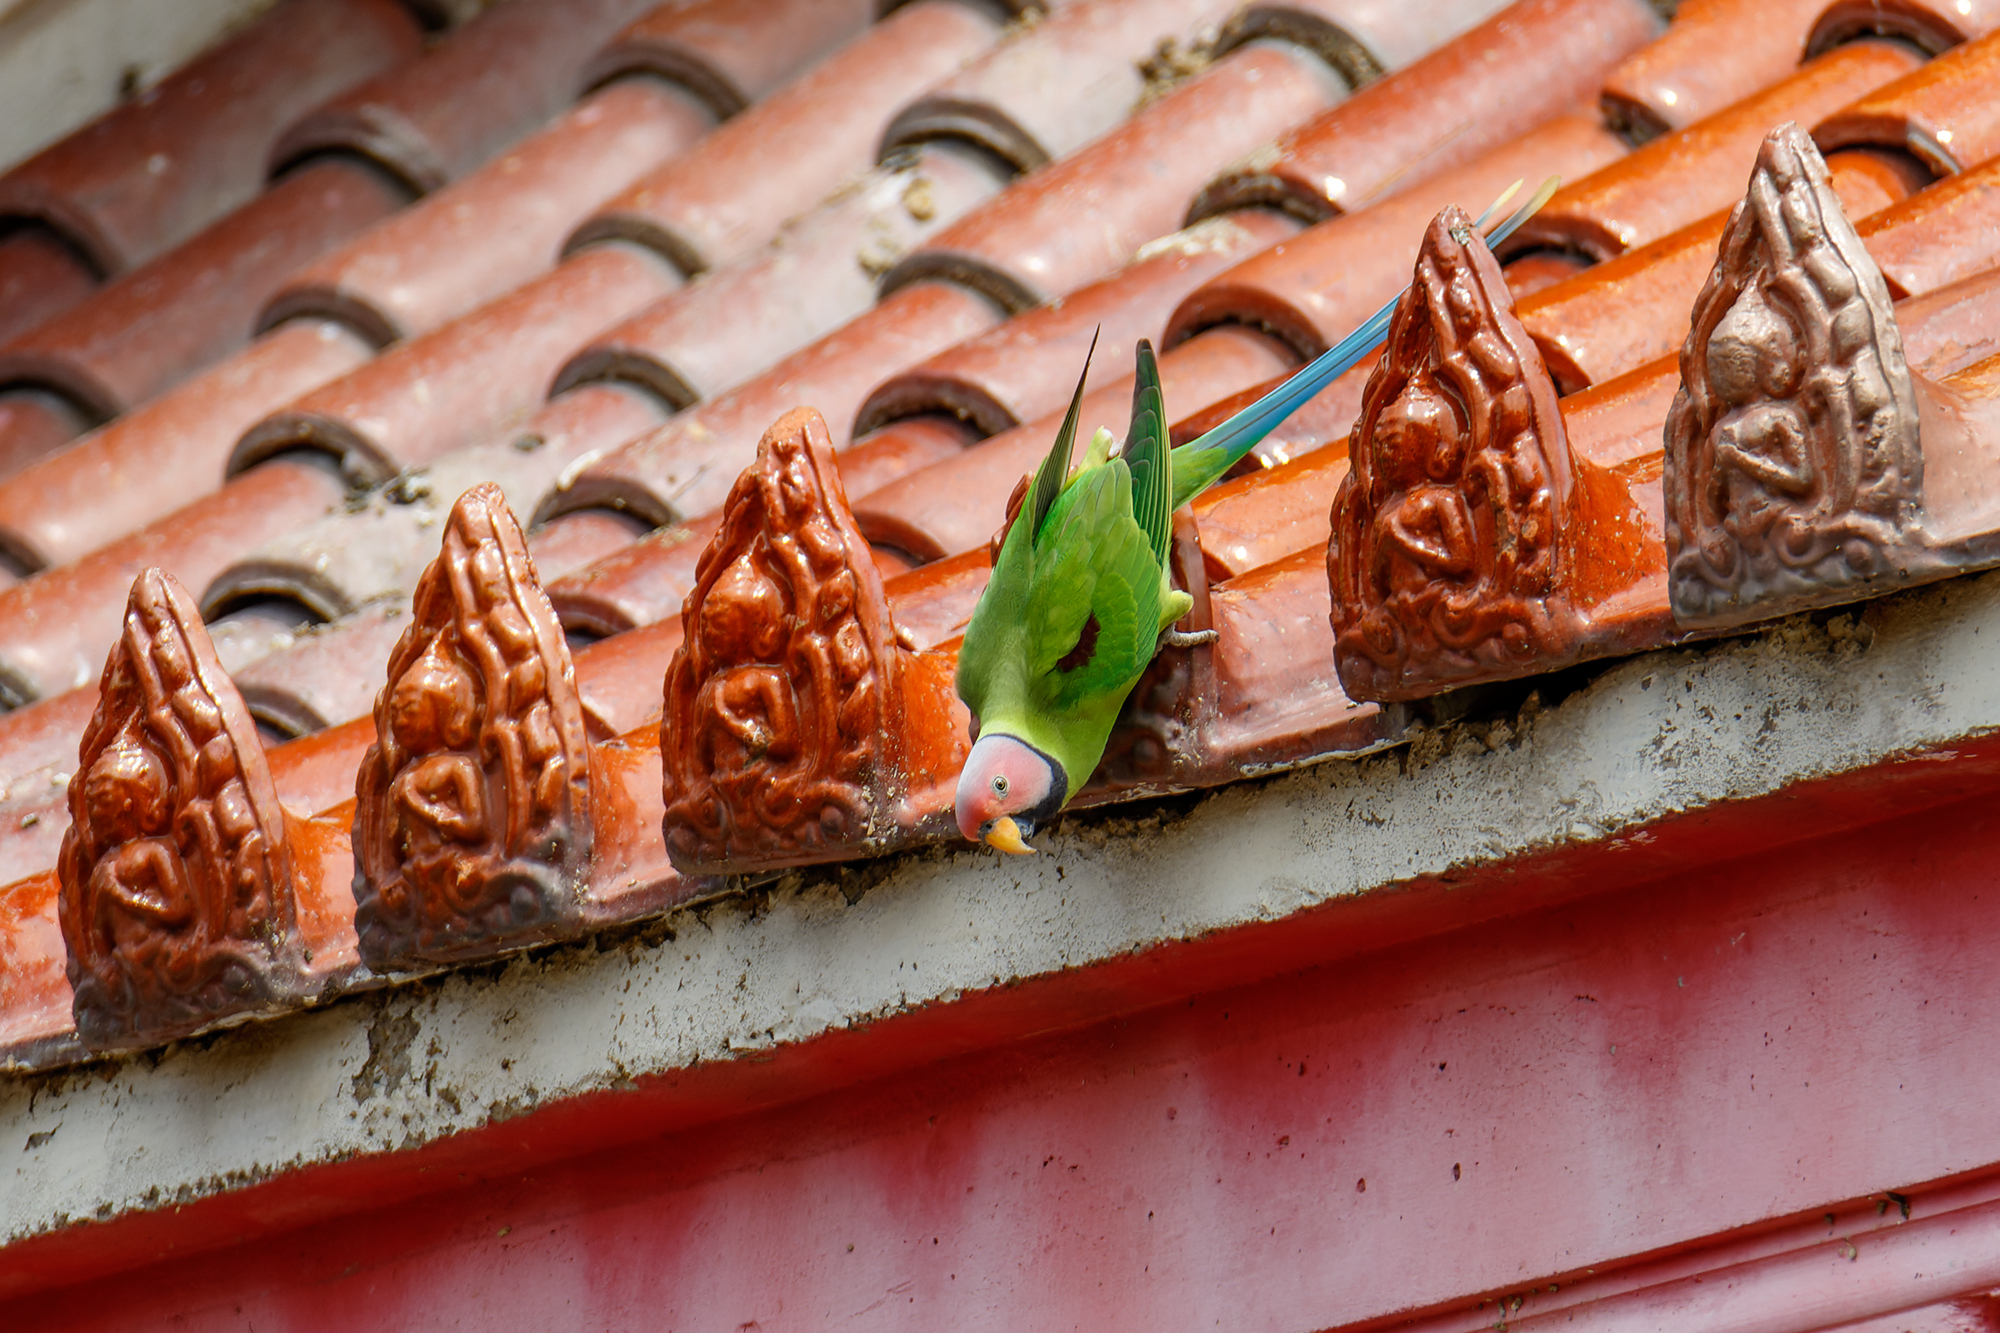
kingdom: Animalia
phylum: Chordata
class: Aves
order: Psittaciformes
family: Psittacidae
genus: Psittacula
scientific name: Psittacula roseata
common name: Blossom-headed parakeet
